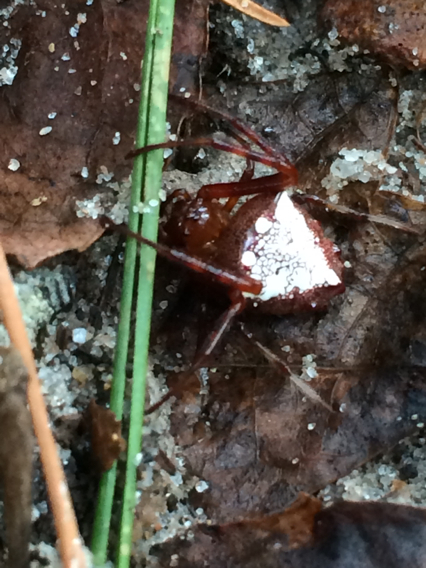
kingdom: Animalia
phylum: Arthropoda
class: Arachnida
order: Araneae
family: Araneidae
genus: Verrucosa
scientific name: Verrucosa arenata
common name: Orb weavers
